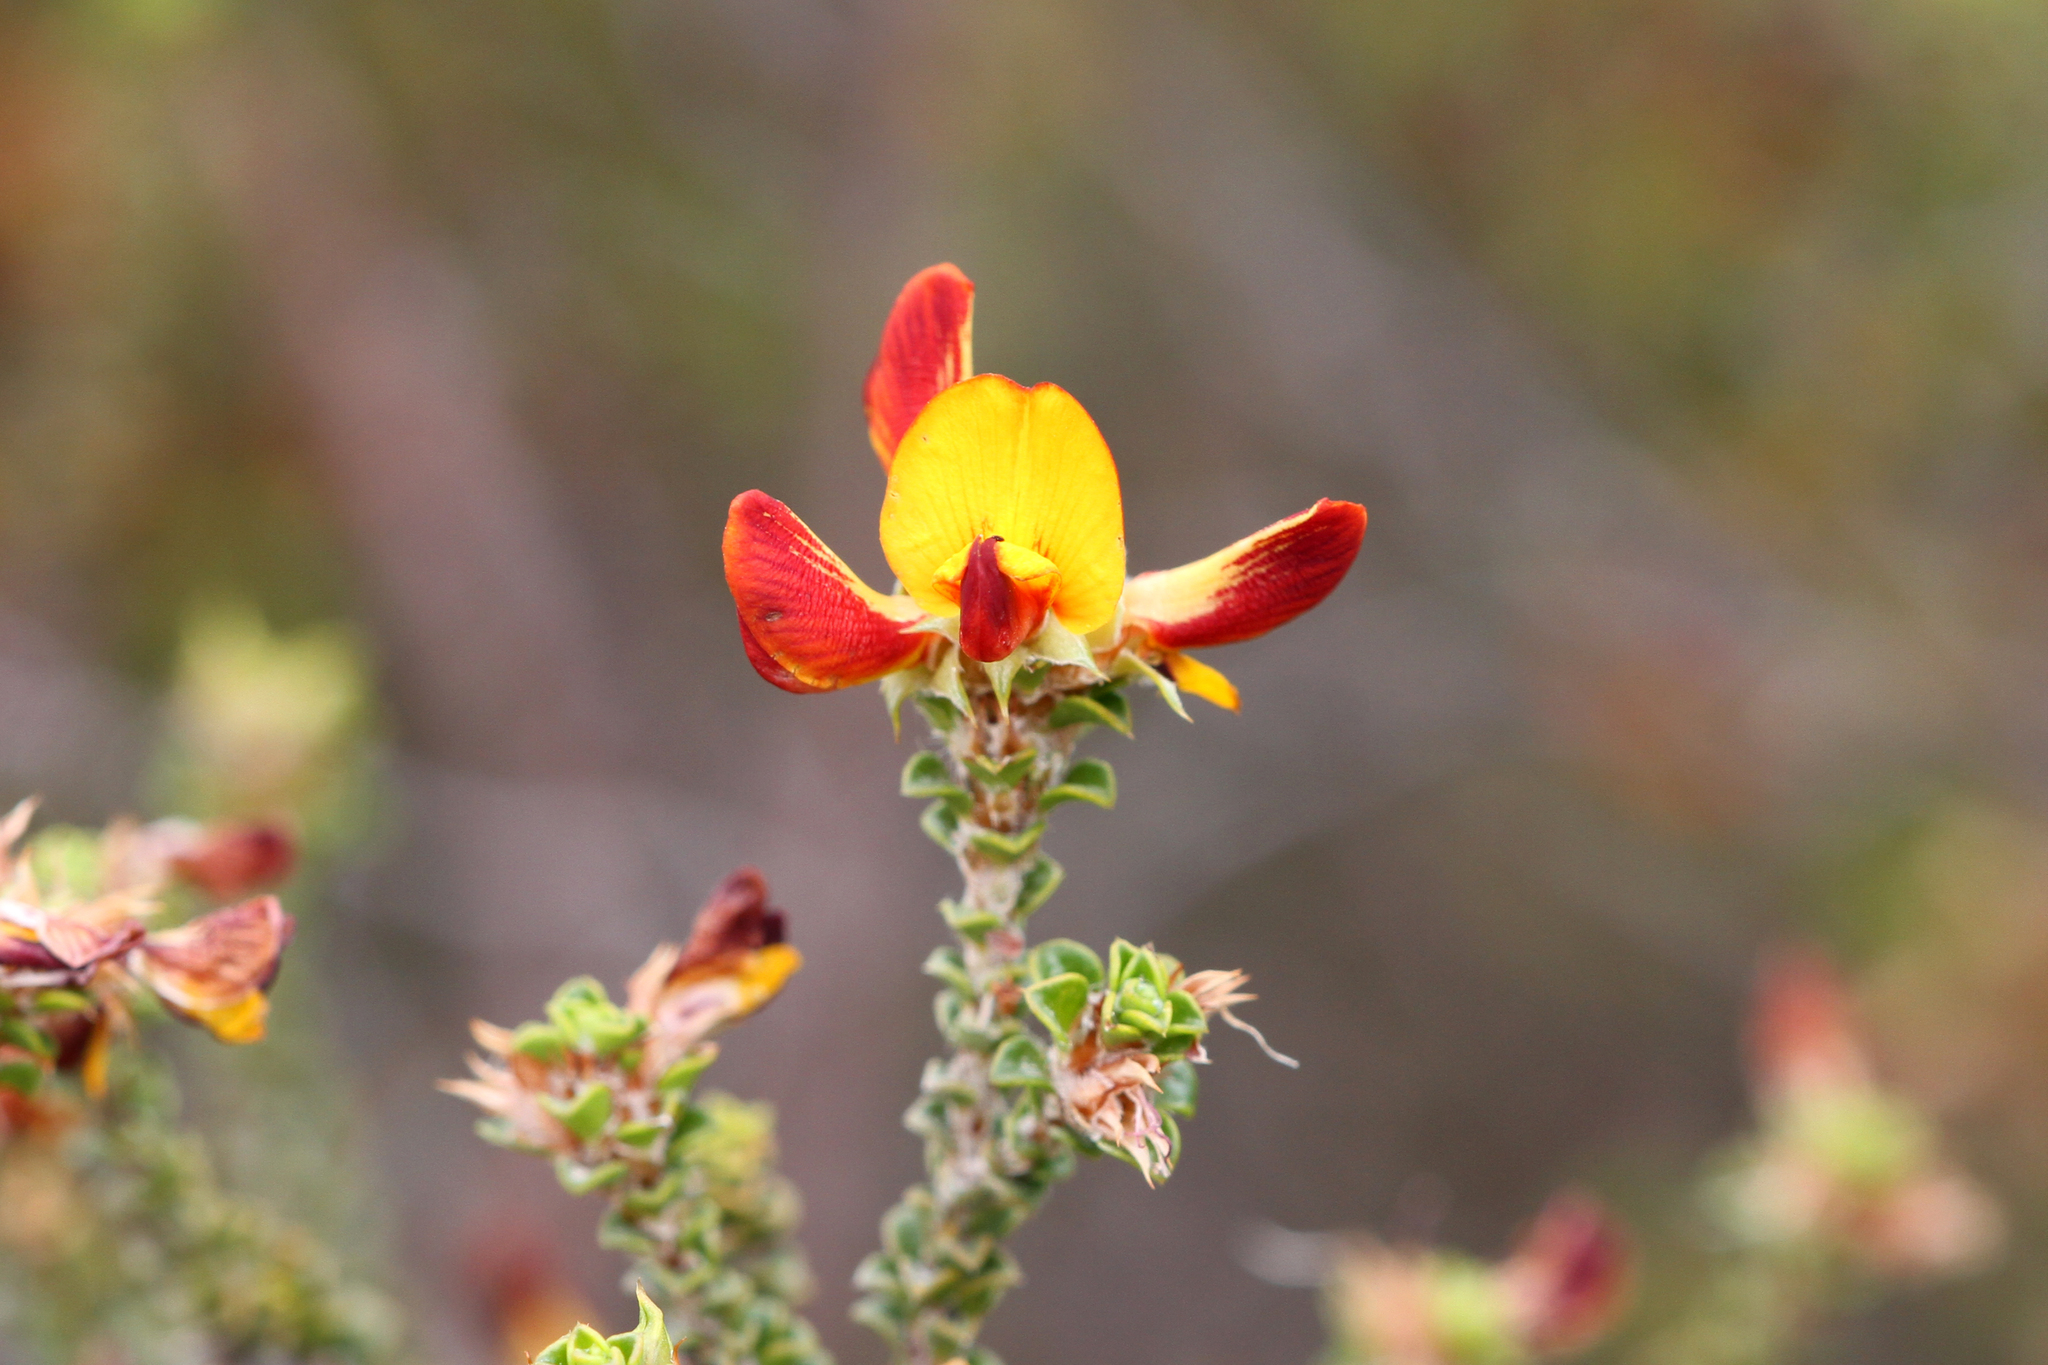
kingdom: Plantae
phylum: Tracheophyta
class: Magnoliopsida
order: Fabales
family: Fabaceae
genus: Pultenaea
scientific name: Pultenaea densifolia
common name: Dense-leaf bush-pea
